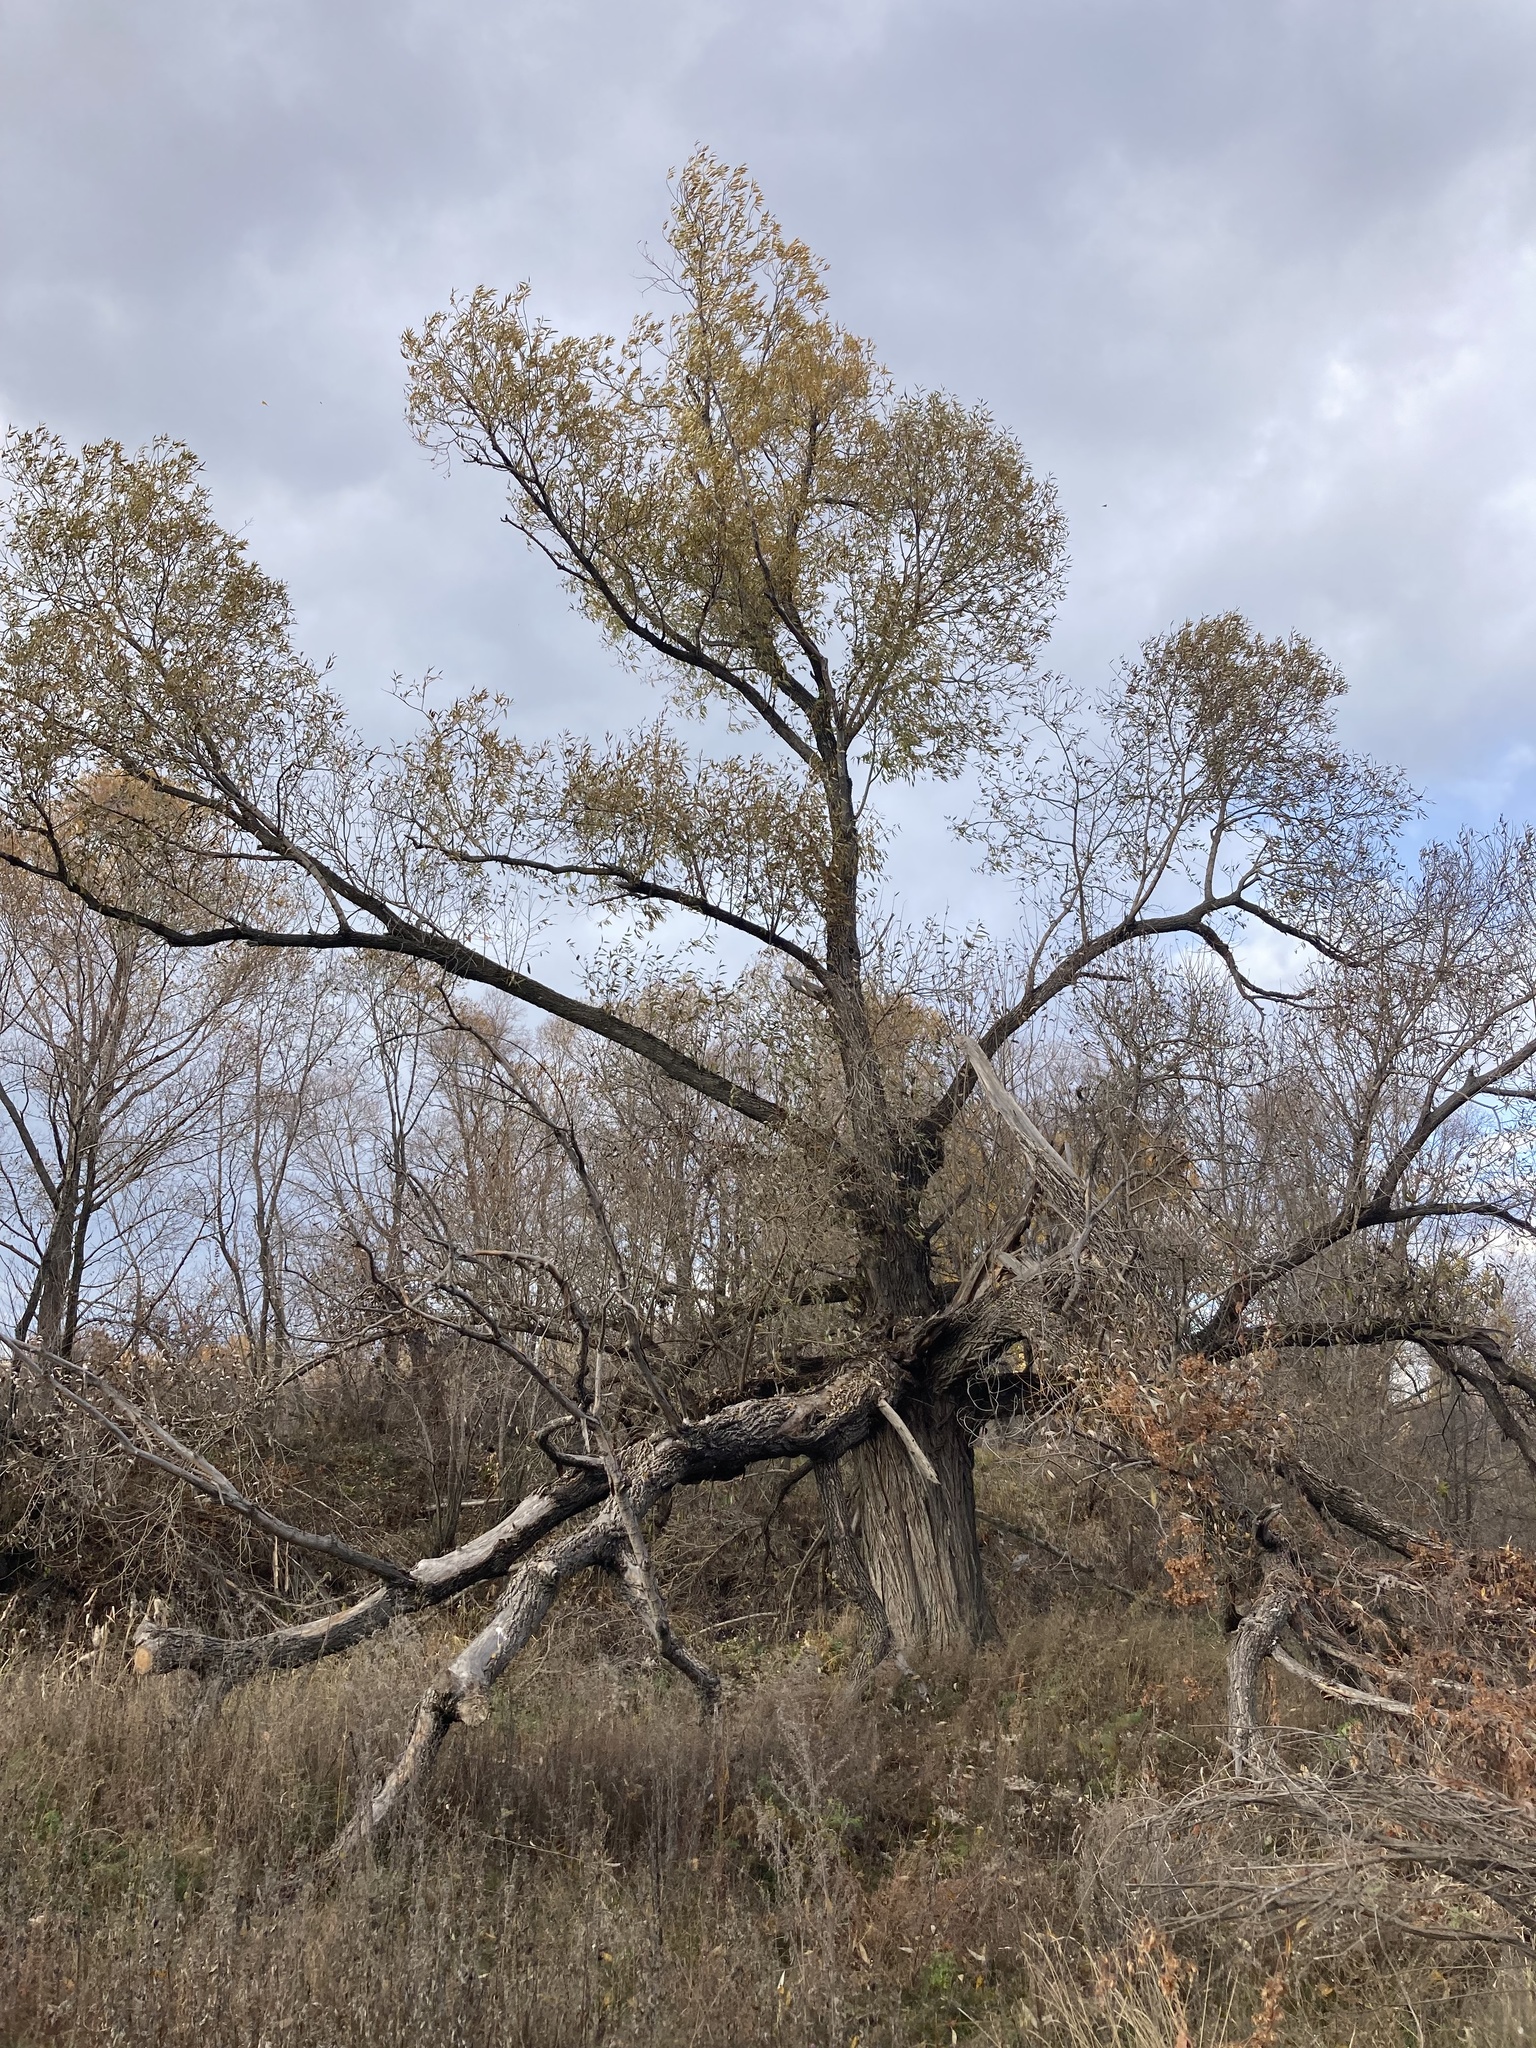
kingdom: Plantae
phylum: Tracheophyta
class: Magnoliopsida
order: Malpighiales
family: Salicaceae
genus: Salix
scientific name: Salix alba
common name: White willow
